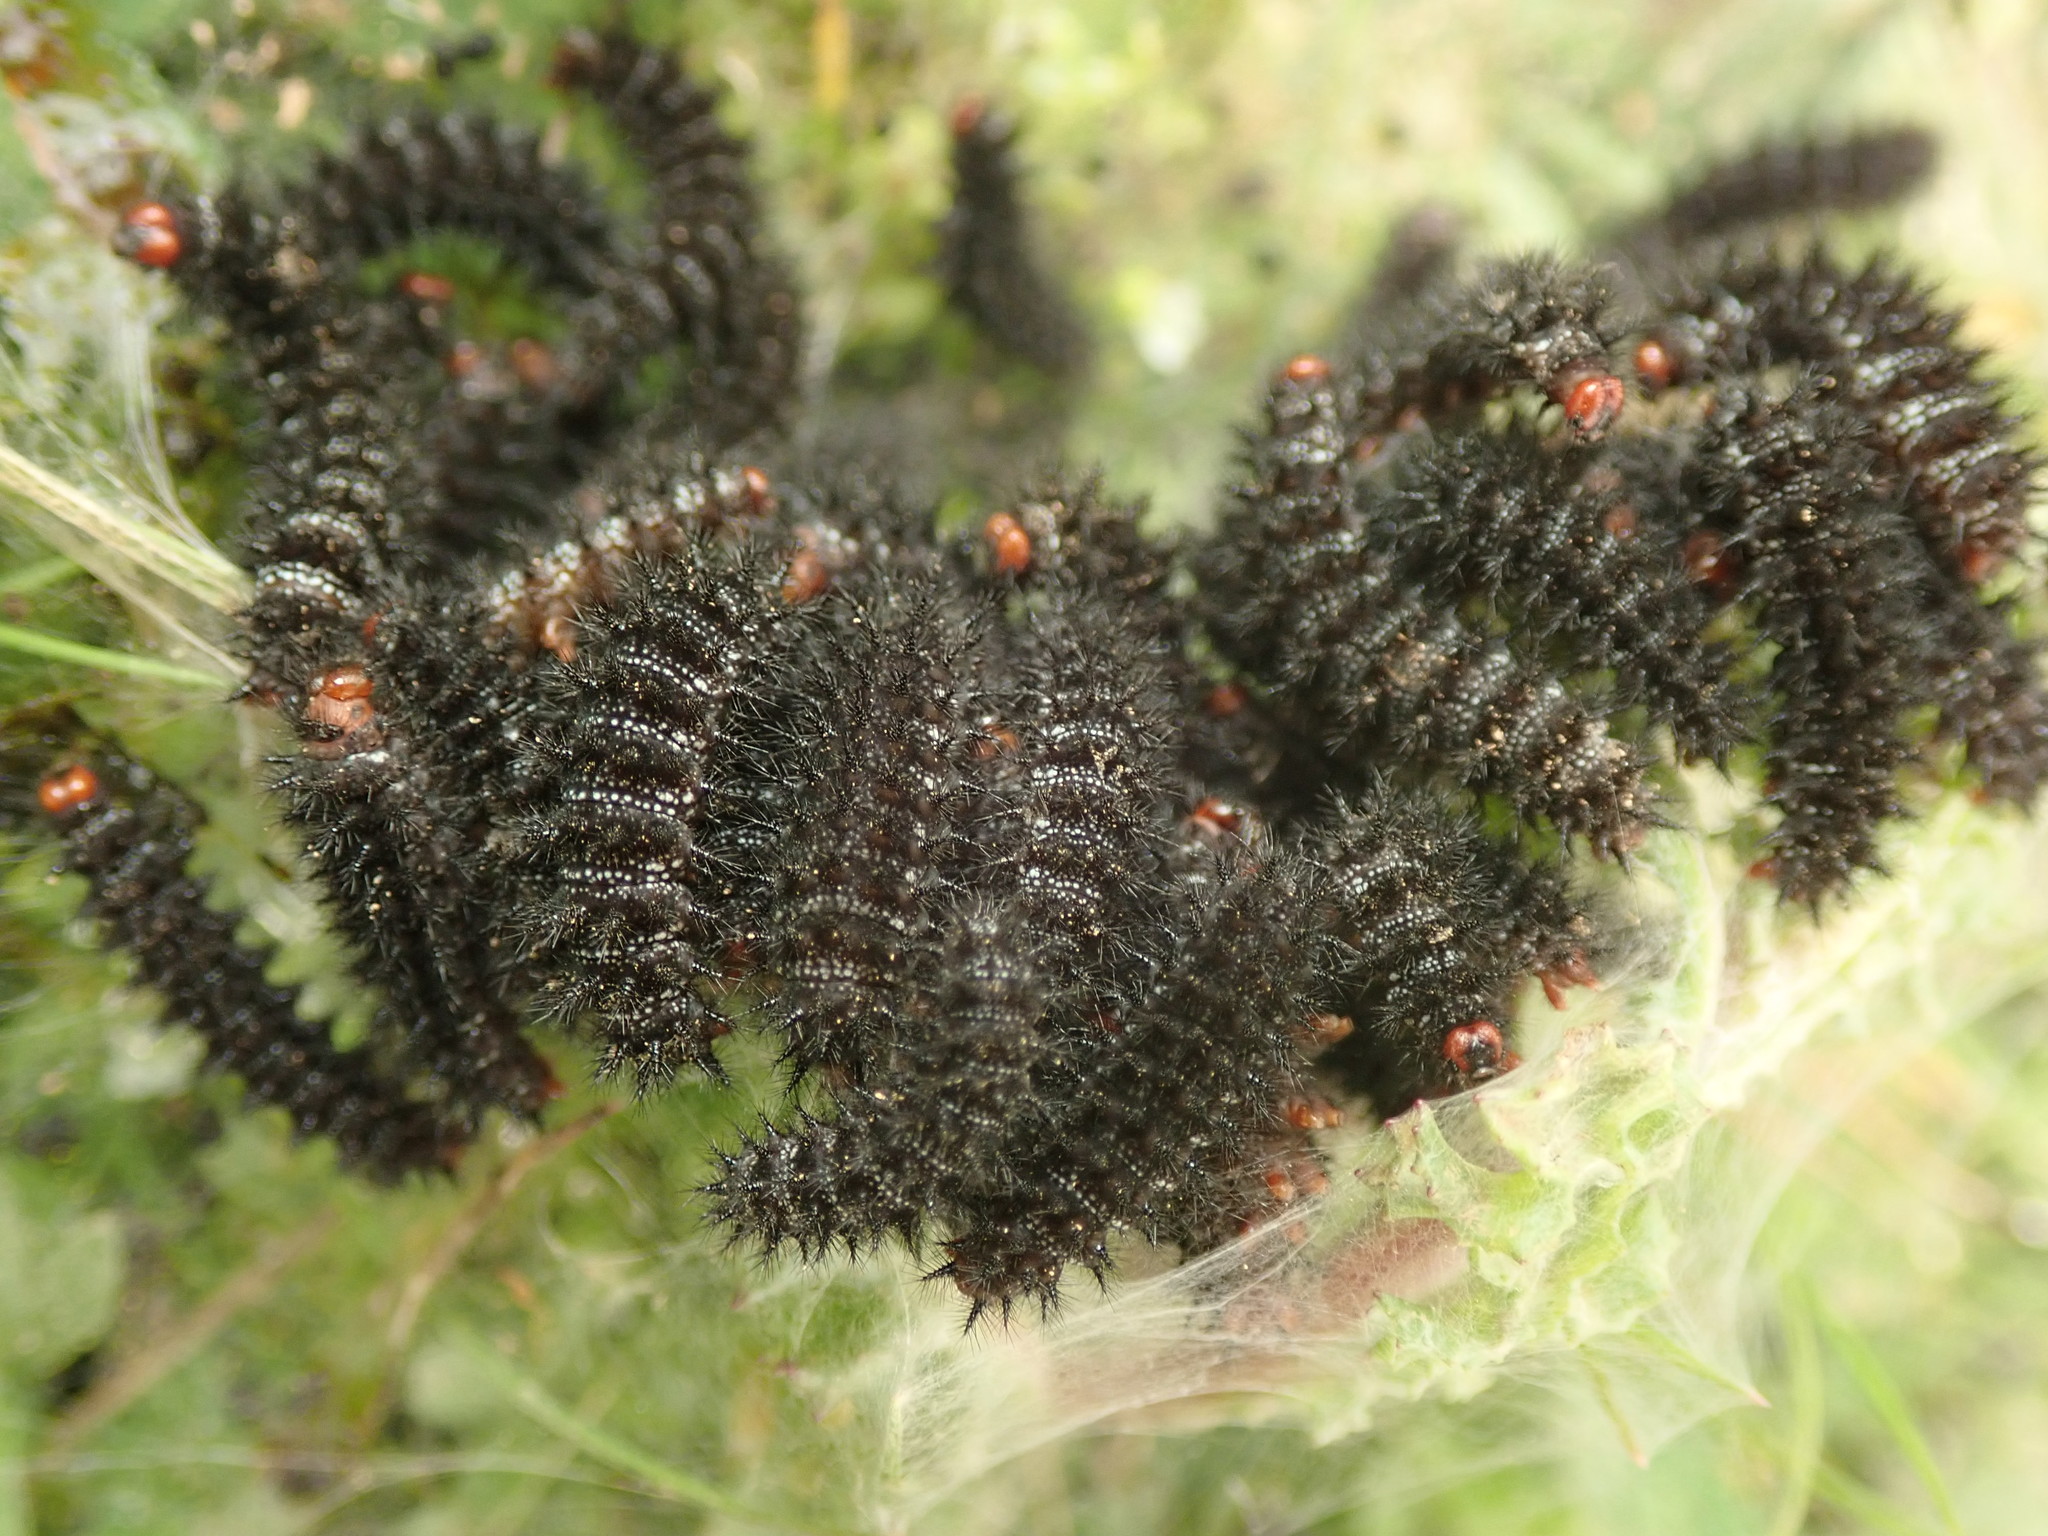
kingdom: Animalia
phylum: Arthropoda
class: Insecta
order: Lepidoptera
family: Nymphalidae
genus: Melitaea
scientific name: Melitaea cinxia
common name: Glanville fritillary
